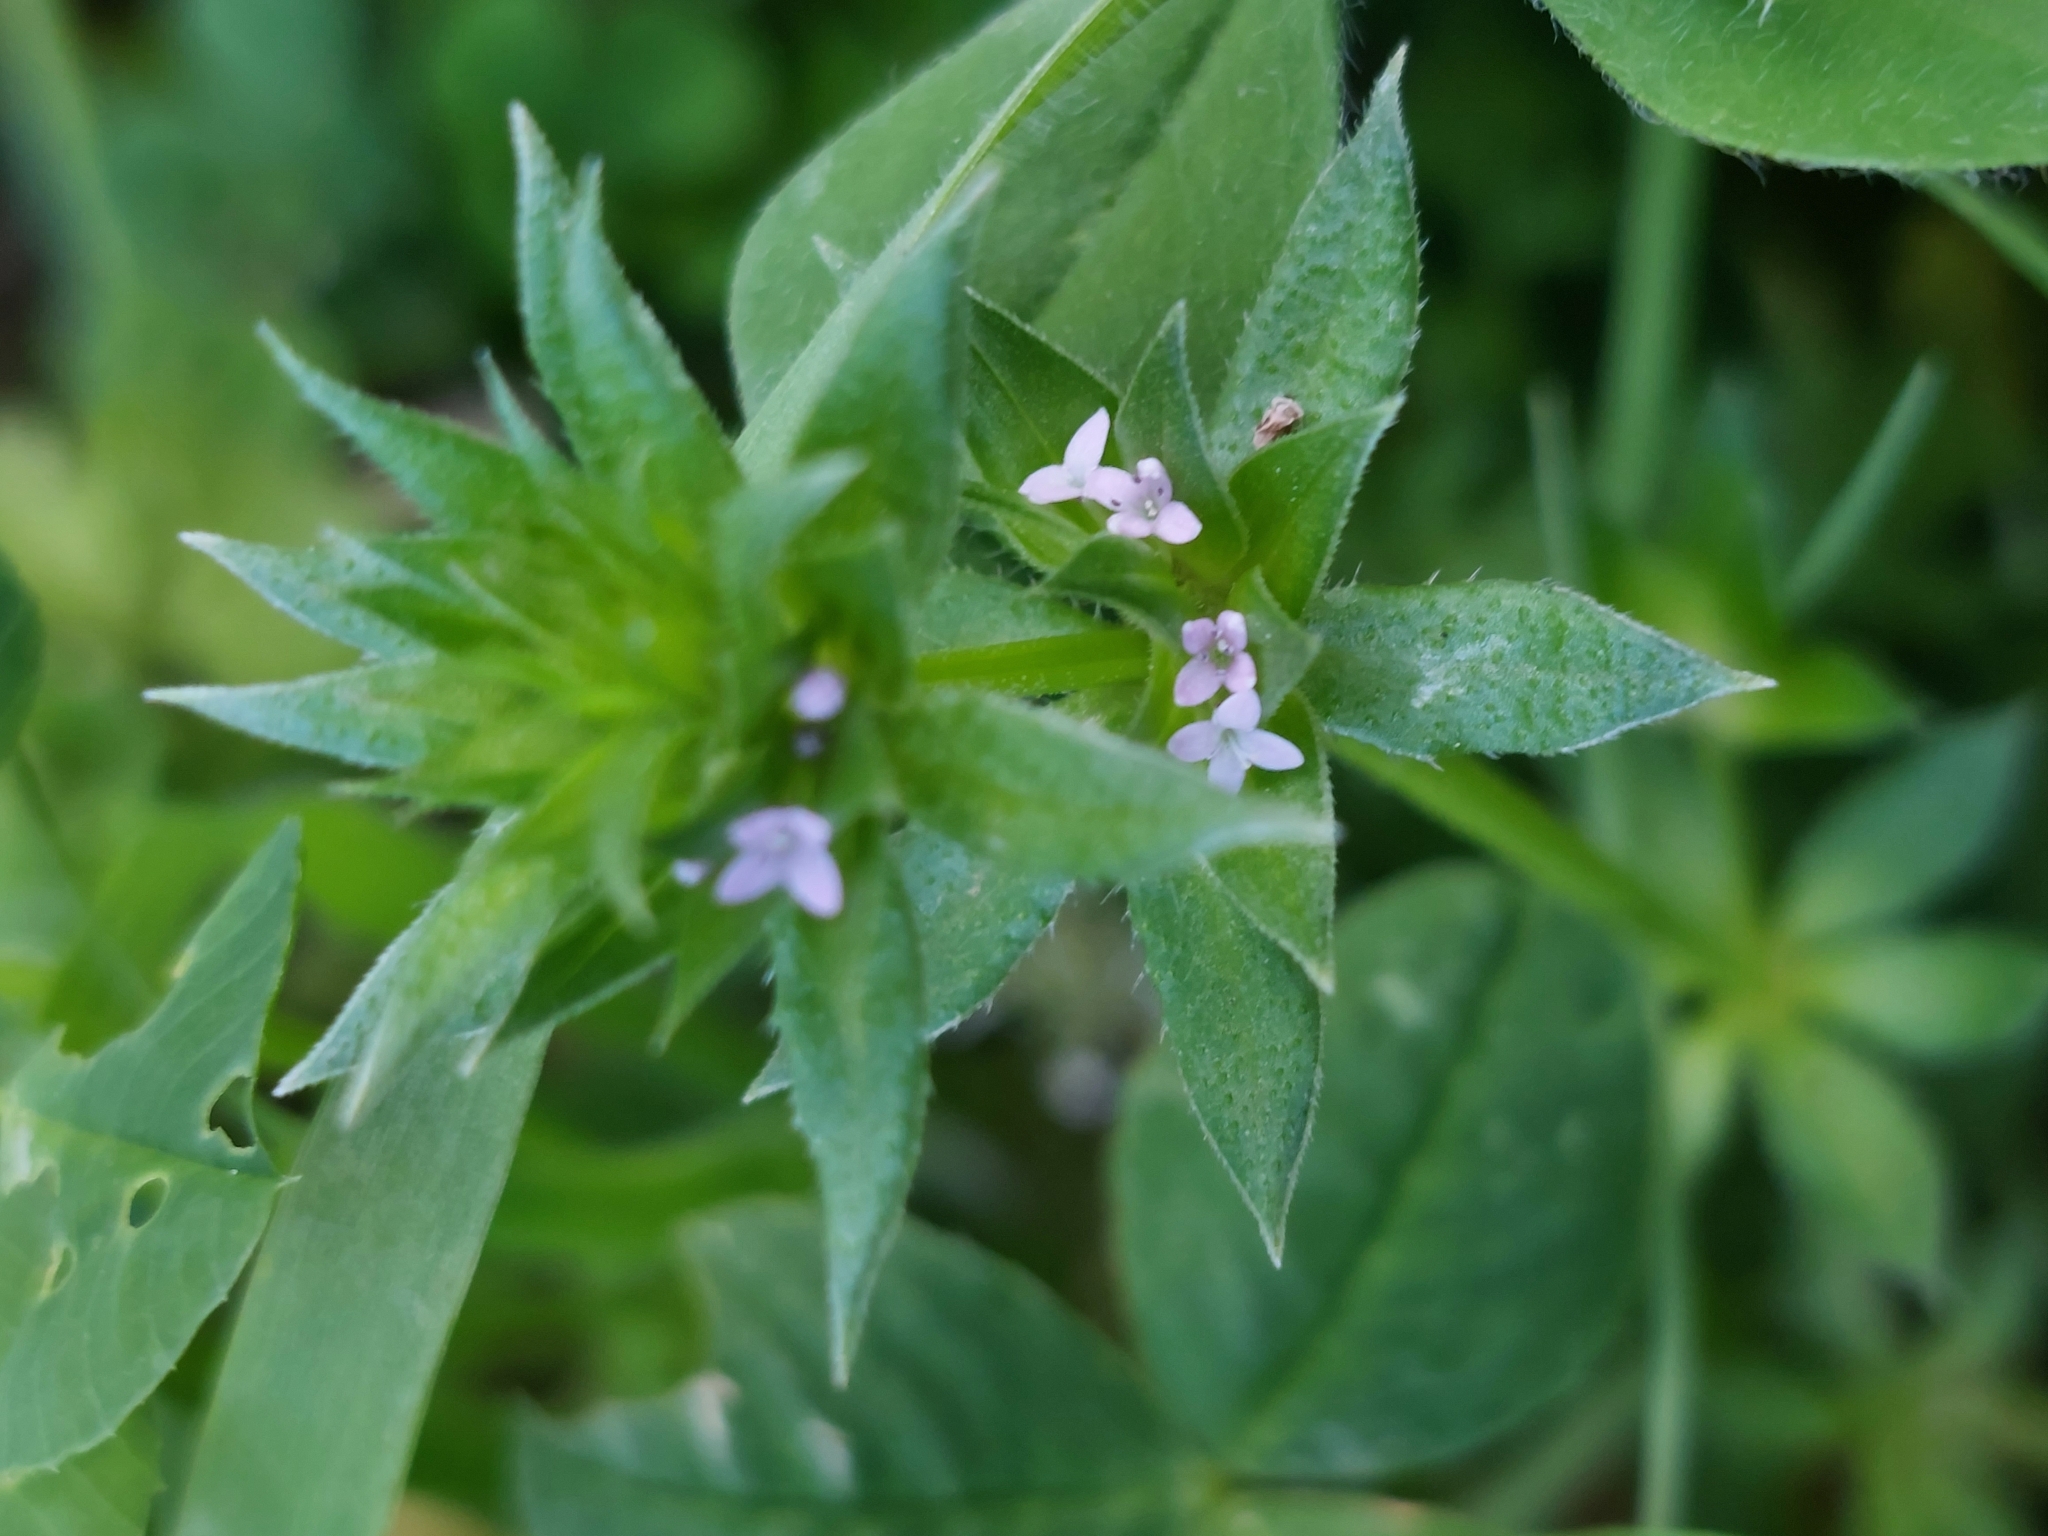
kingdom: Plantae
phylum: Tracheophyta
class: Magnoliopsida
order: Gentianales
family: Rubiaceae
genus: Sherardia
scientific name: Sherardia arvensis
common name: Field madder
